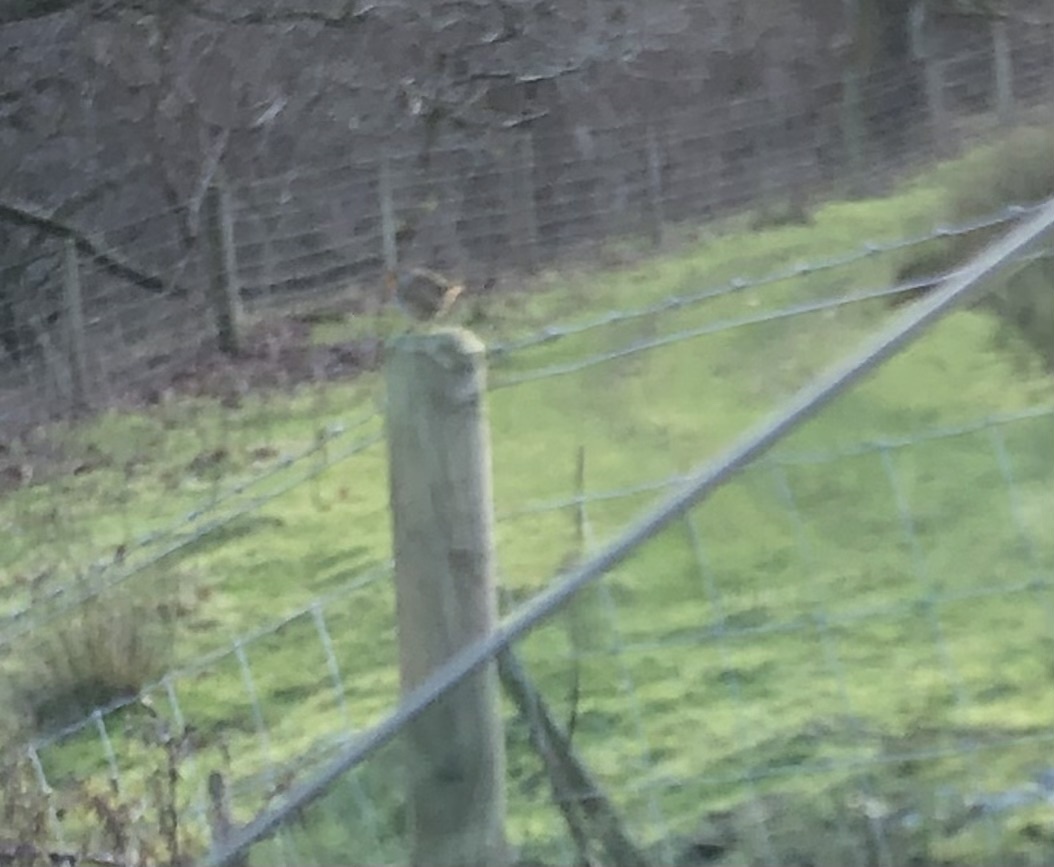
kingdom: Animalia
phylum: Chordata
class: Aves
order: Passeriformes
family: Muscicapidae
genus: Erithacus
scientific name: Erithacus rubecula
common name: European robin
